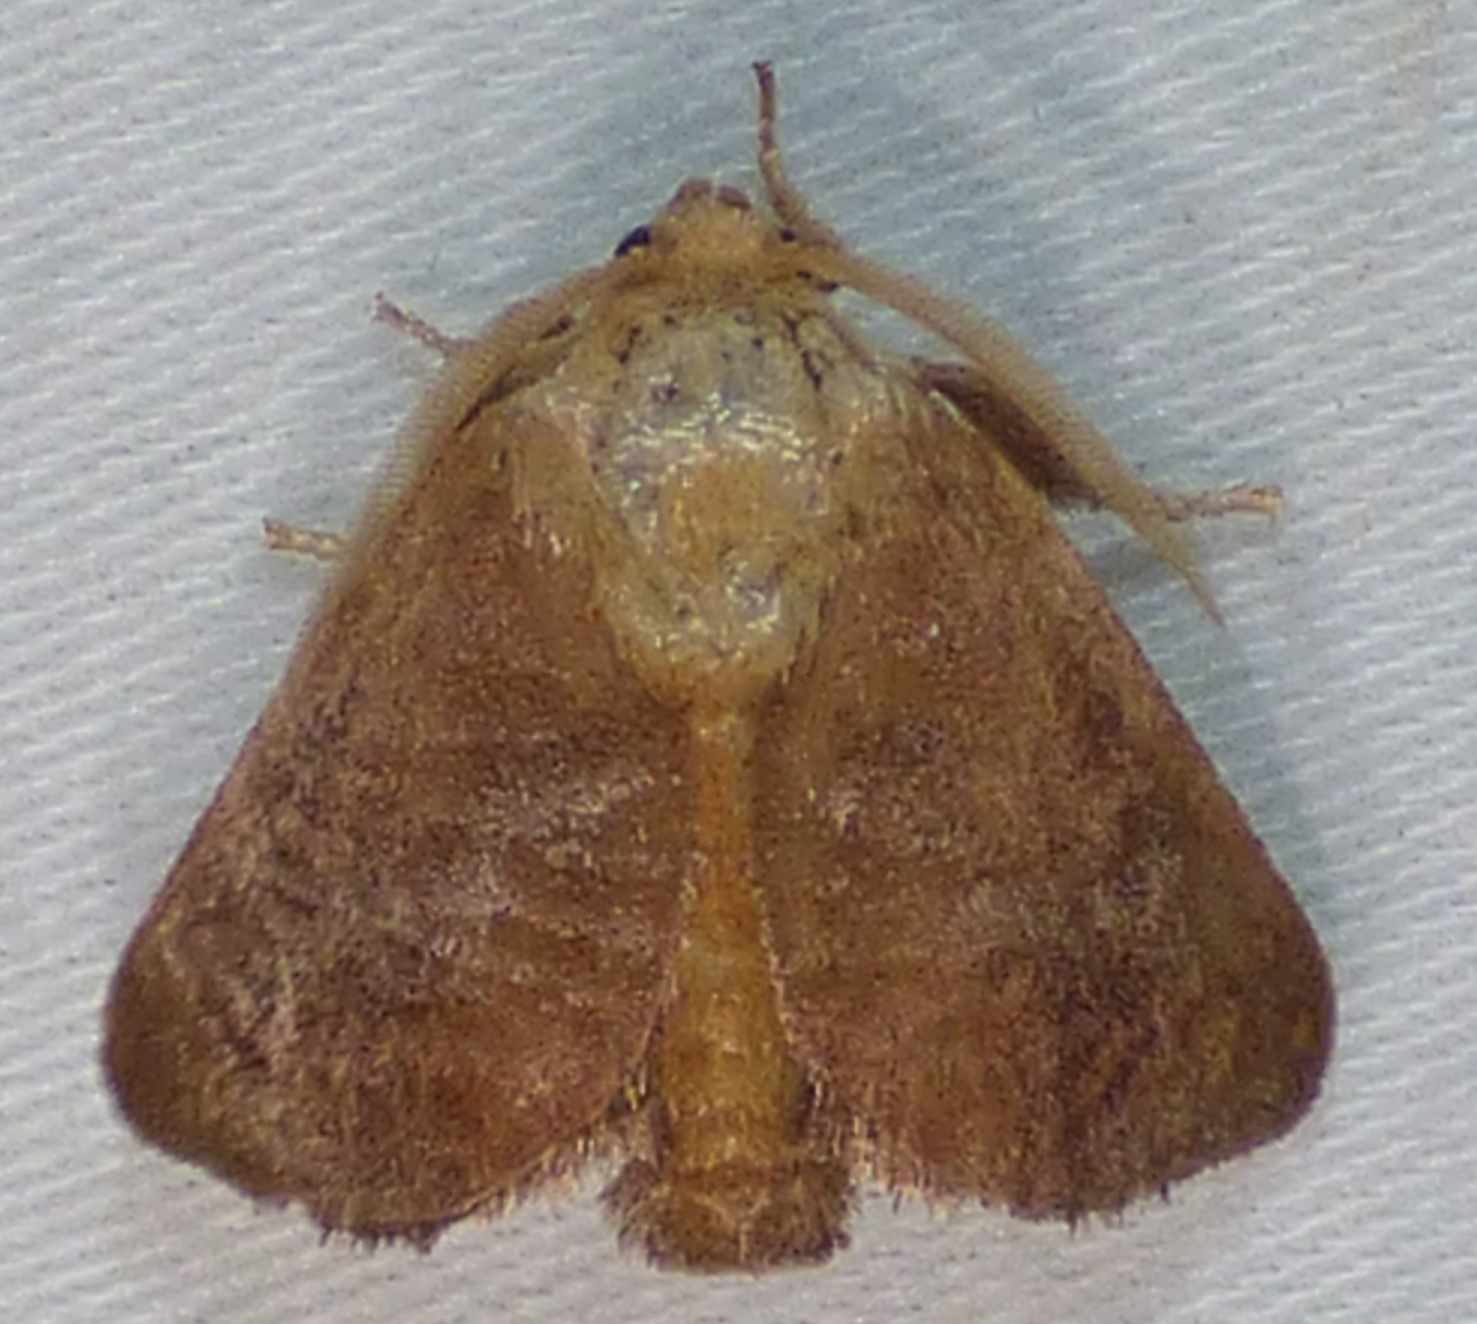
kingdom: Animalia
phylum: Arthropoda
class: Insecta
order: Lepidoptera
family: Limacodidae
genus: Isa
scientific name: Isa textula
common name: Crowned slug moth
